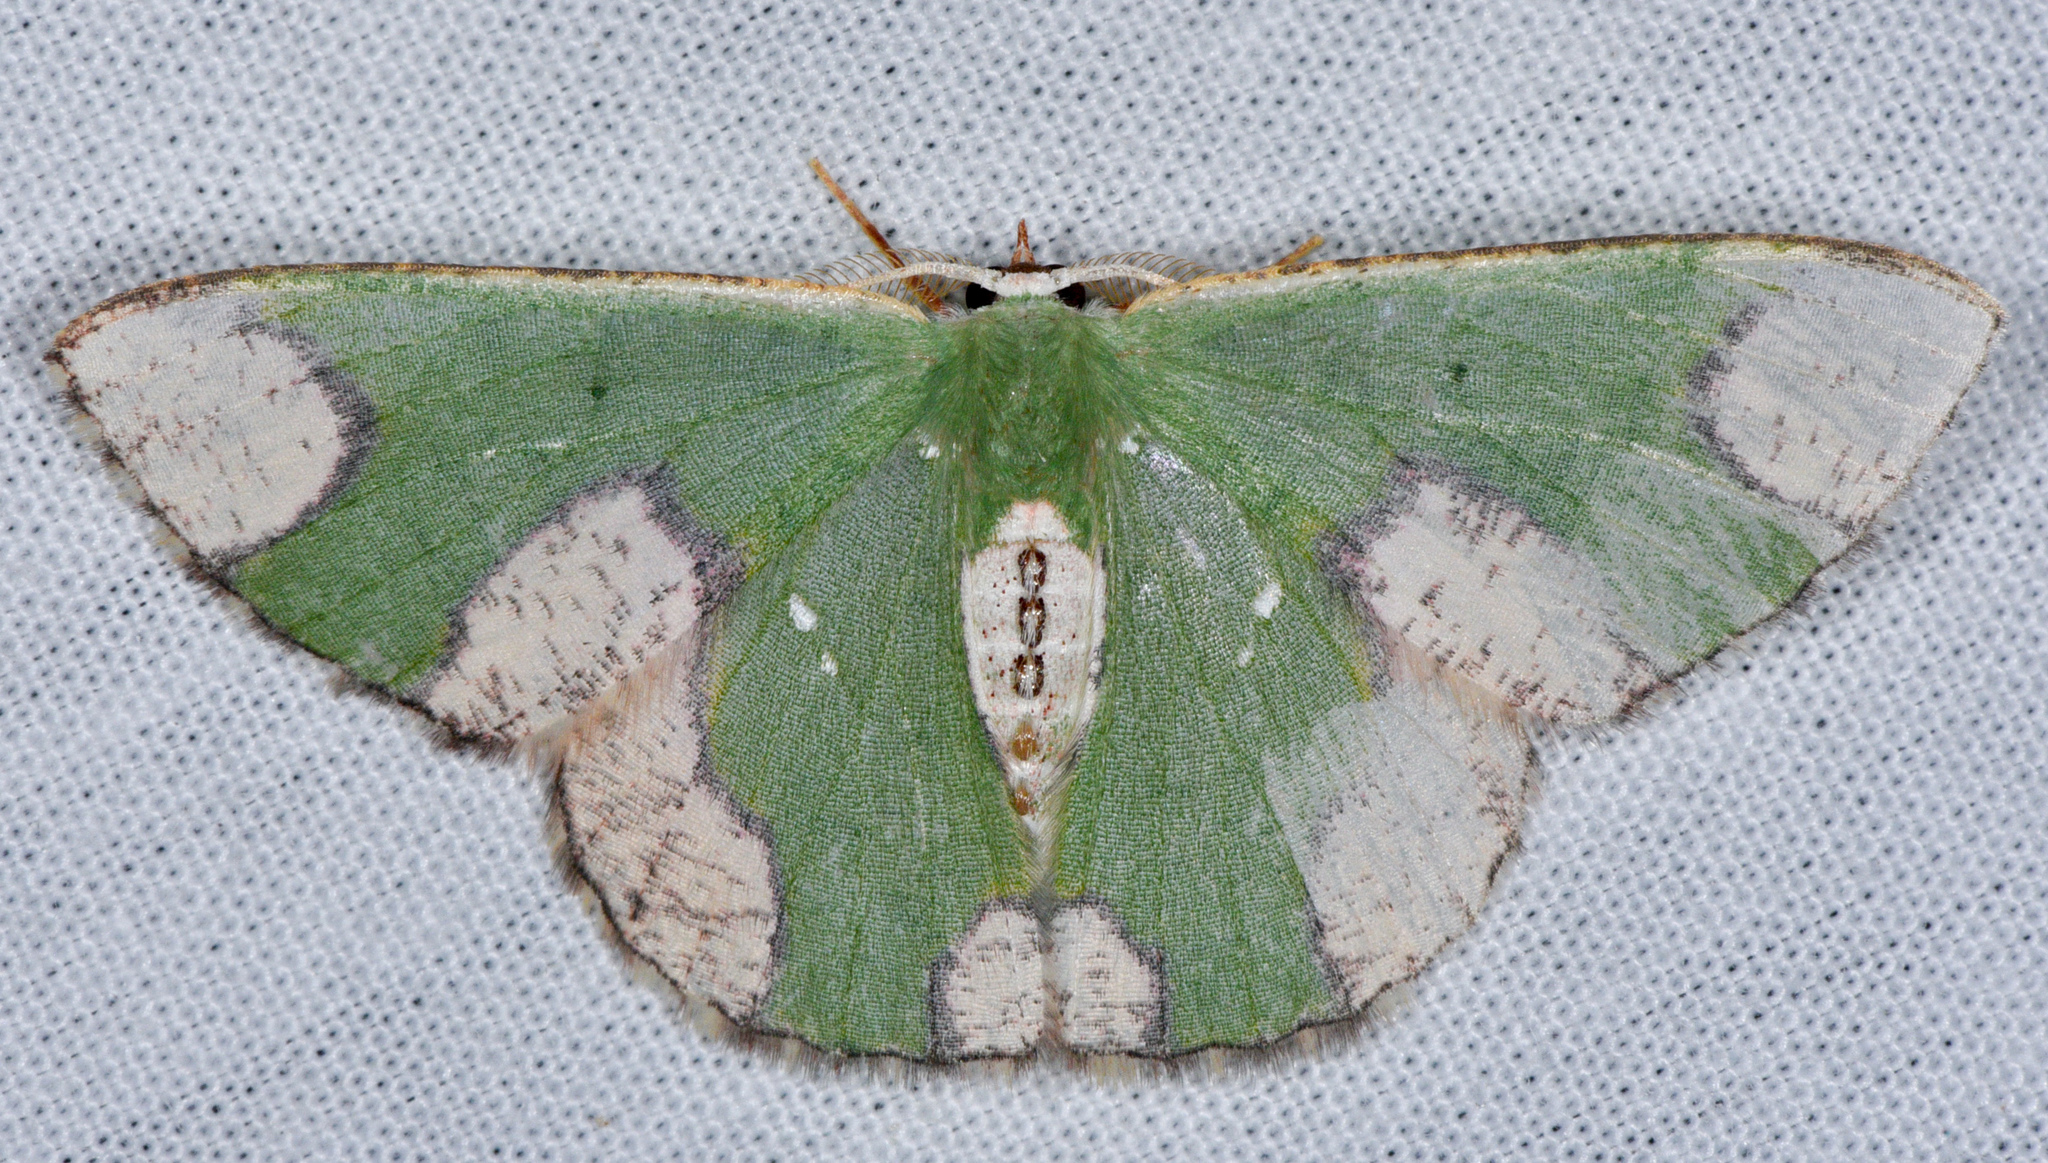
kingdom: Animalia
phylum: Arthropoda
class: Insecta
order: Lepidoptera
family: Geometridae
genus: Oospila
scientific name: Oospila depressa
